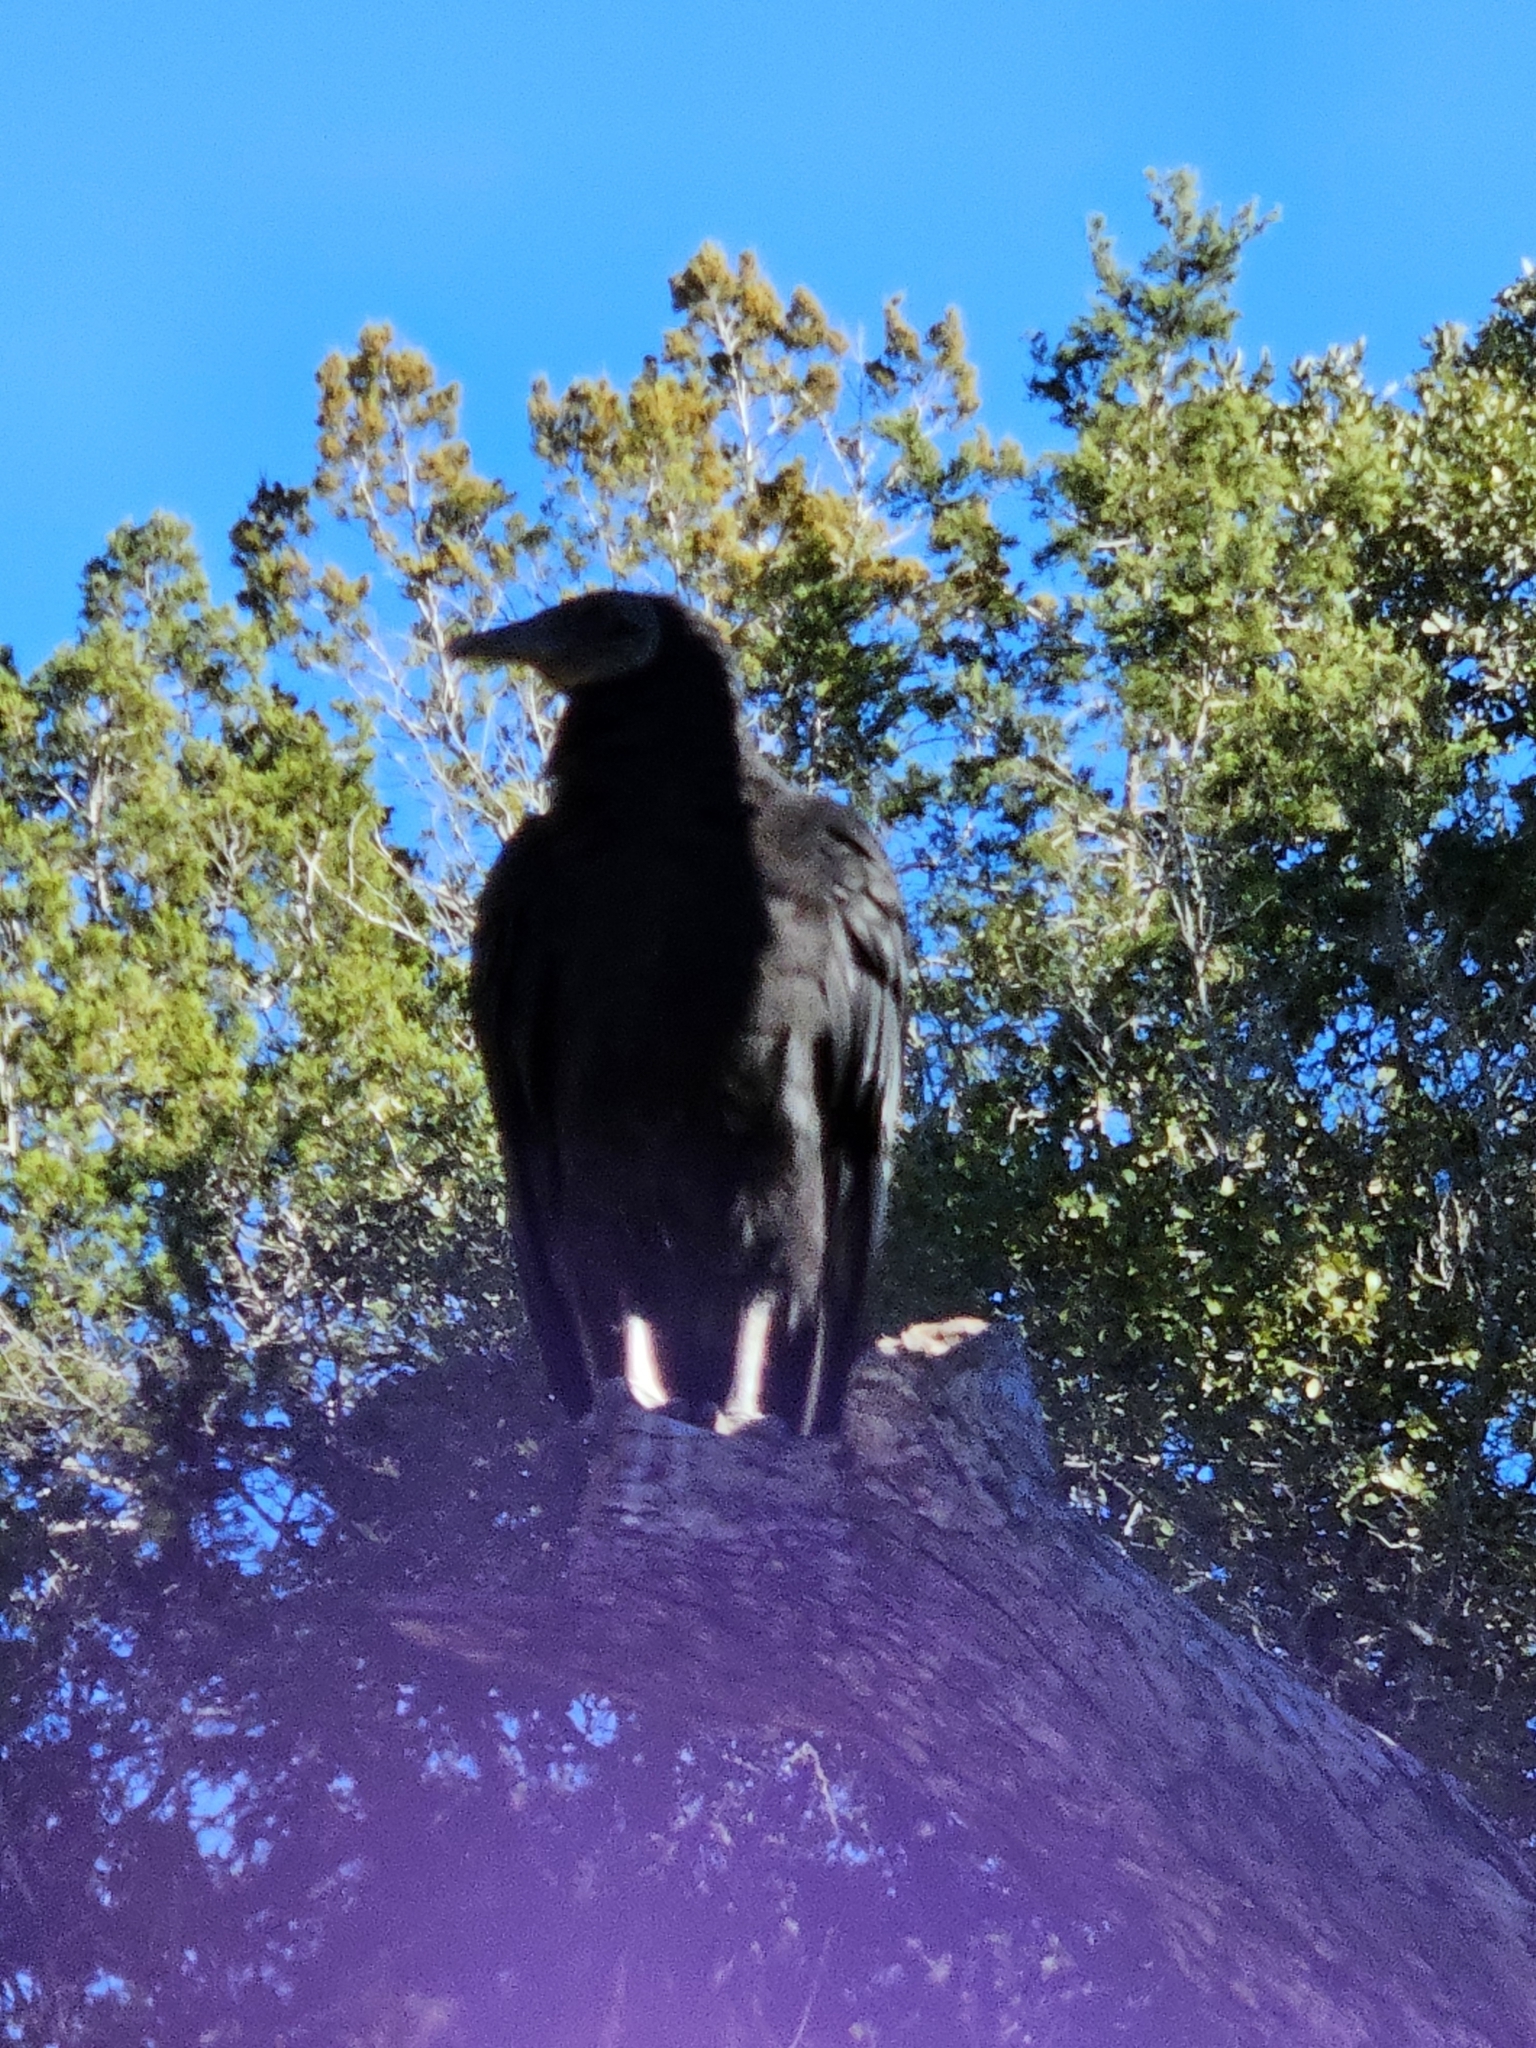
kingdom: Animalia
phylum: Chordata
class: Aves
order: Accipitriformes
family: Cathartidae
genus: Coragyps
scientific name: Coragyps atratus
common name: Black vulture
